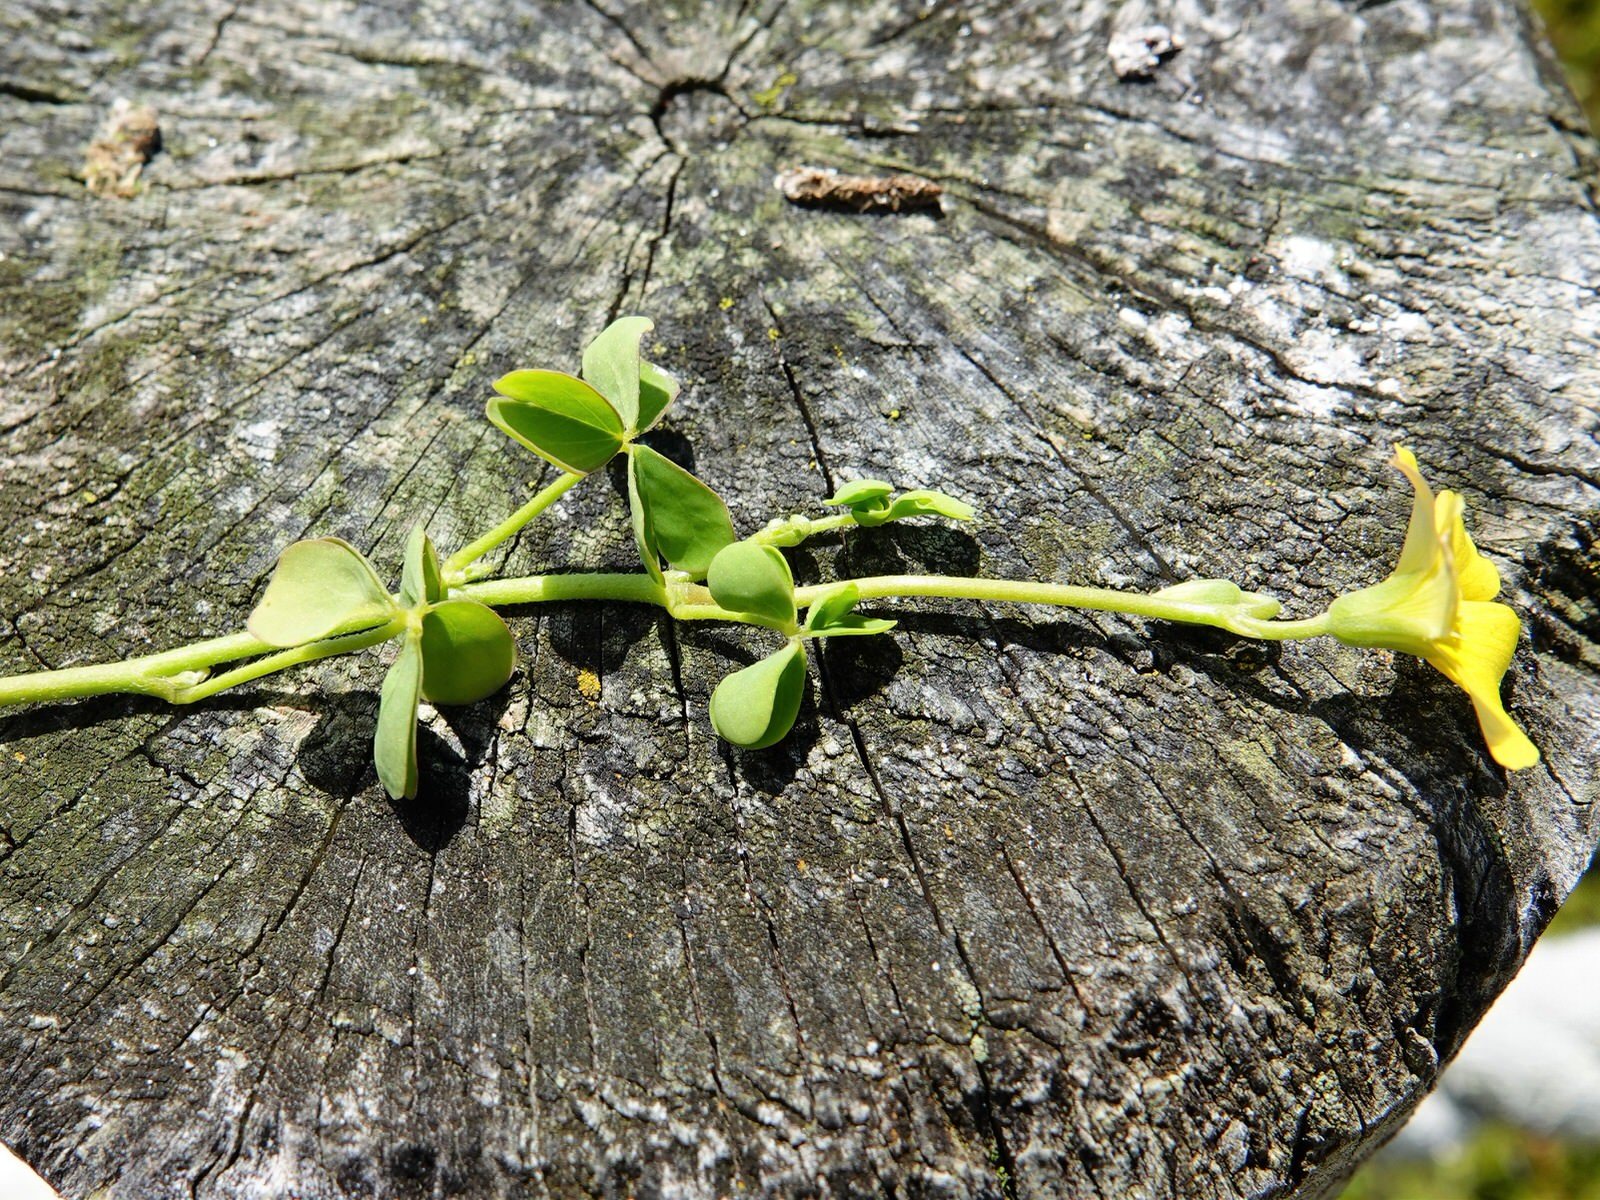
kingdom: Plantae
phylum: Tracheophyta
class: Magnoliopsida
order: Oxalidales
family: Oxalidaceae
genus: Oxalis
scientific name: Oxalis rubens
